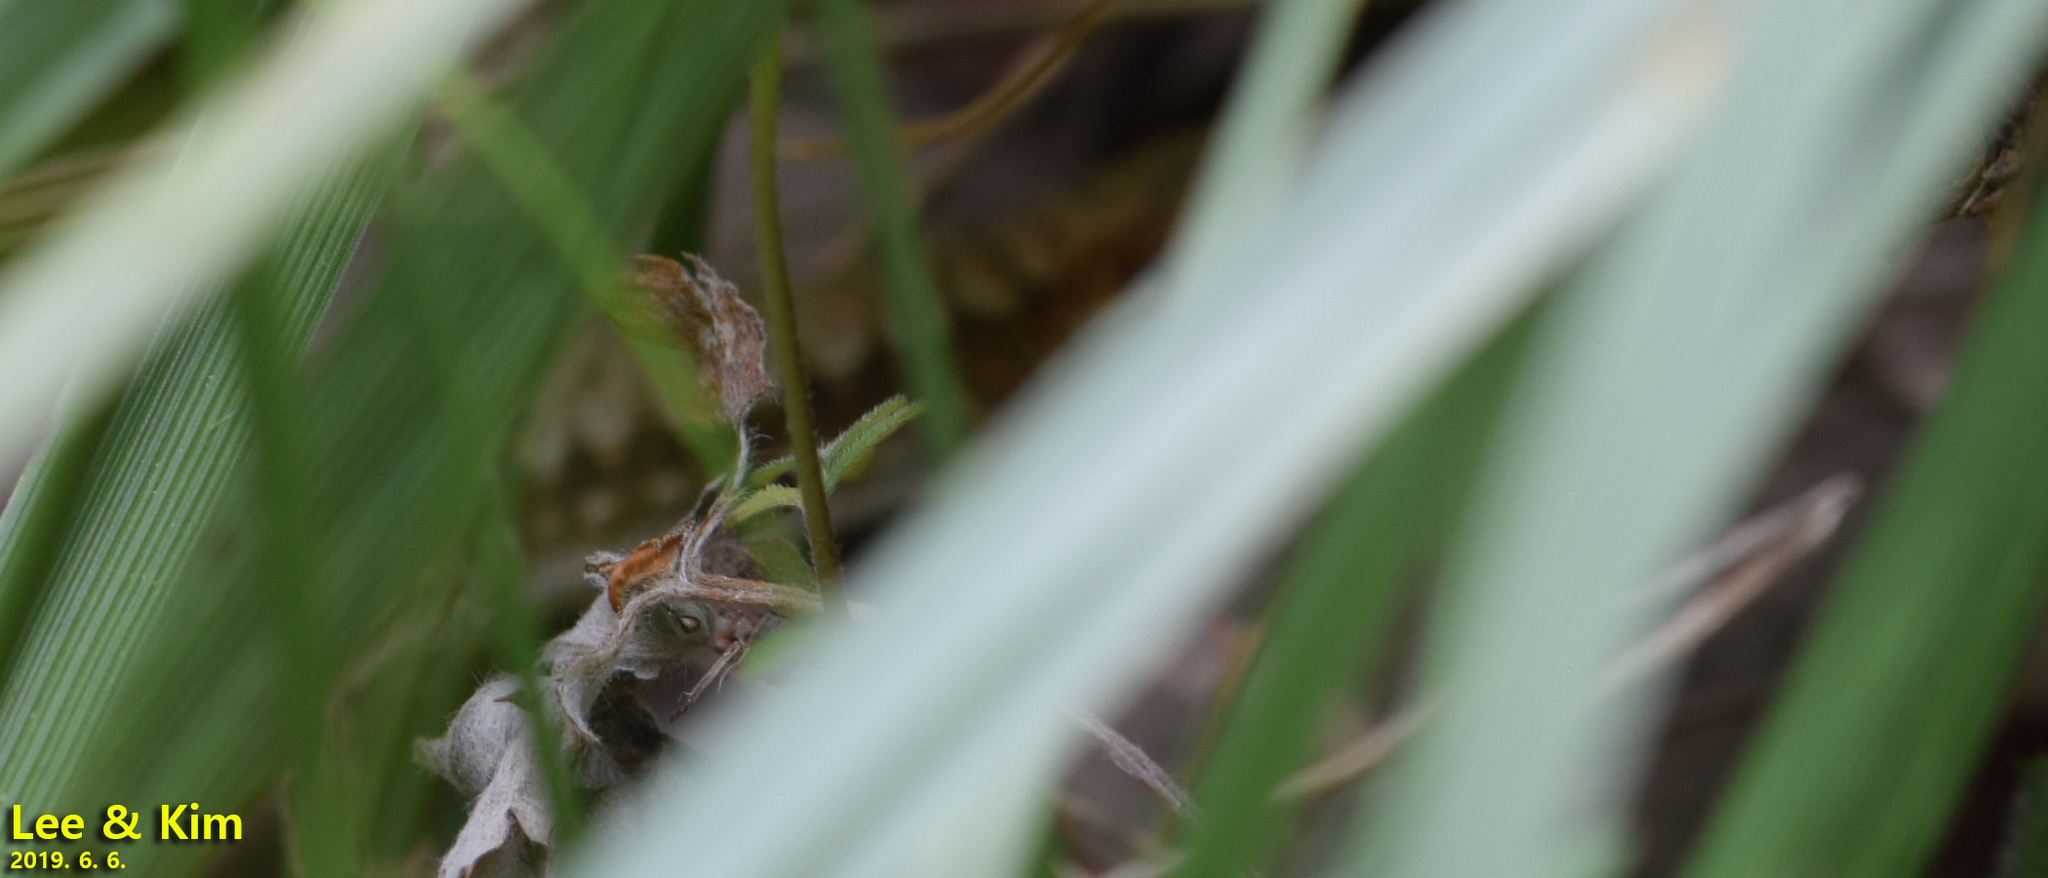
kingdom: Animalia
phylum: Chordata
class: Squamata
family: Lacertidae
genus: Takydromus
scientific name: Takydromus amurensis
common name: Amur grass lizard
